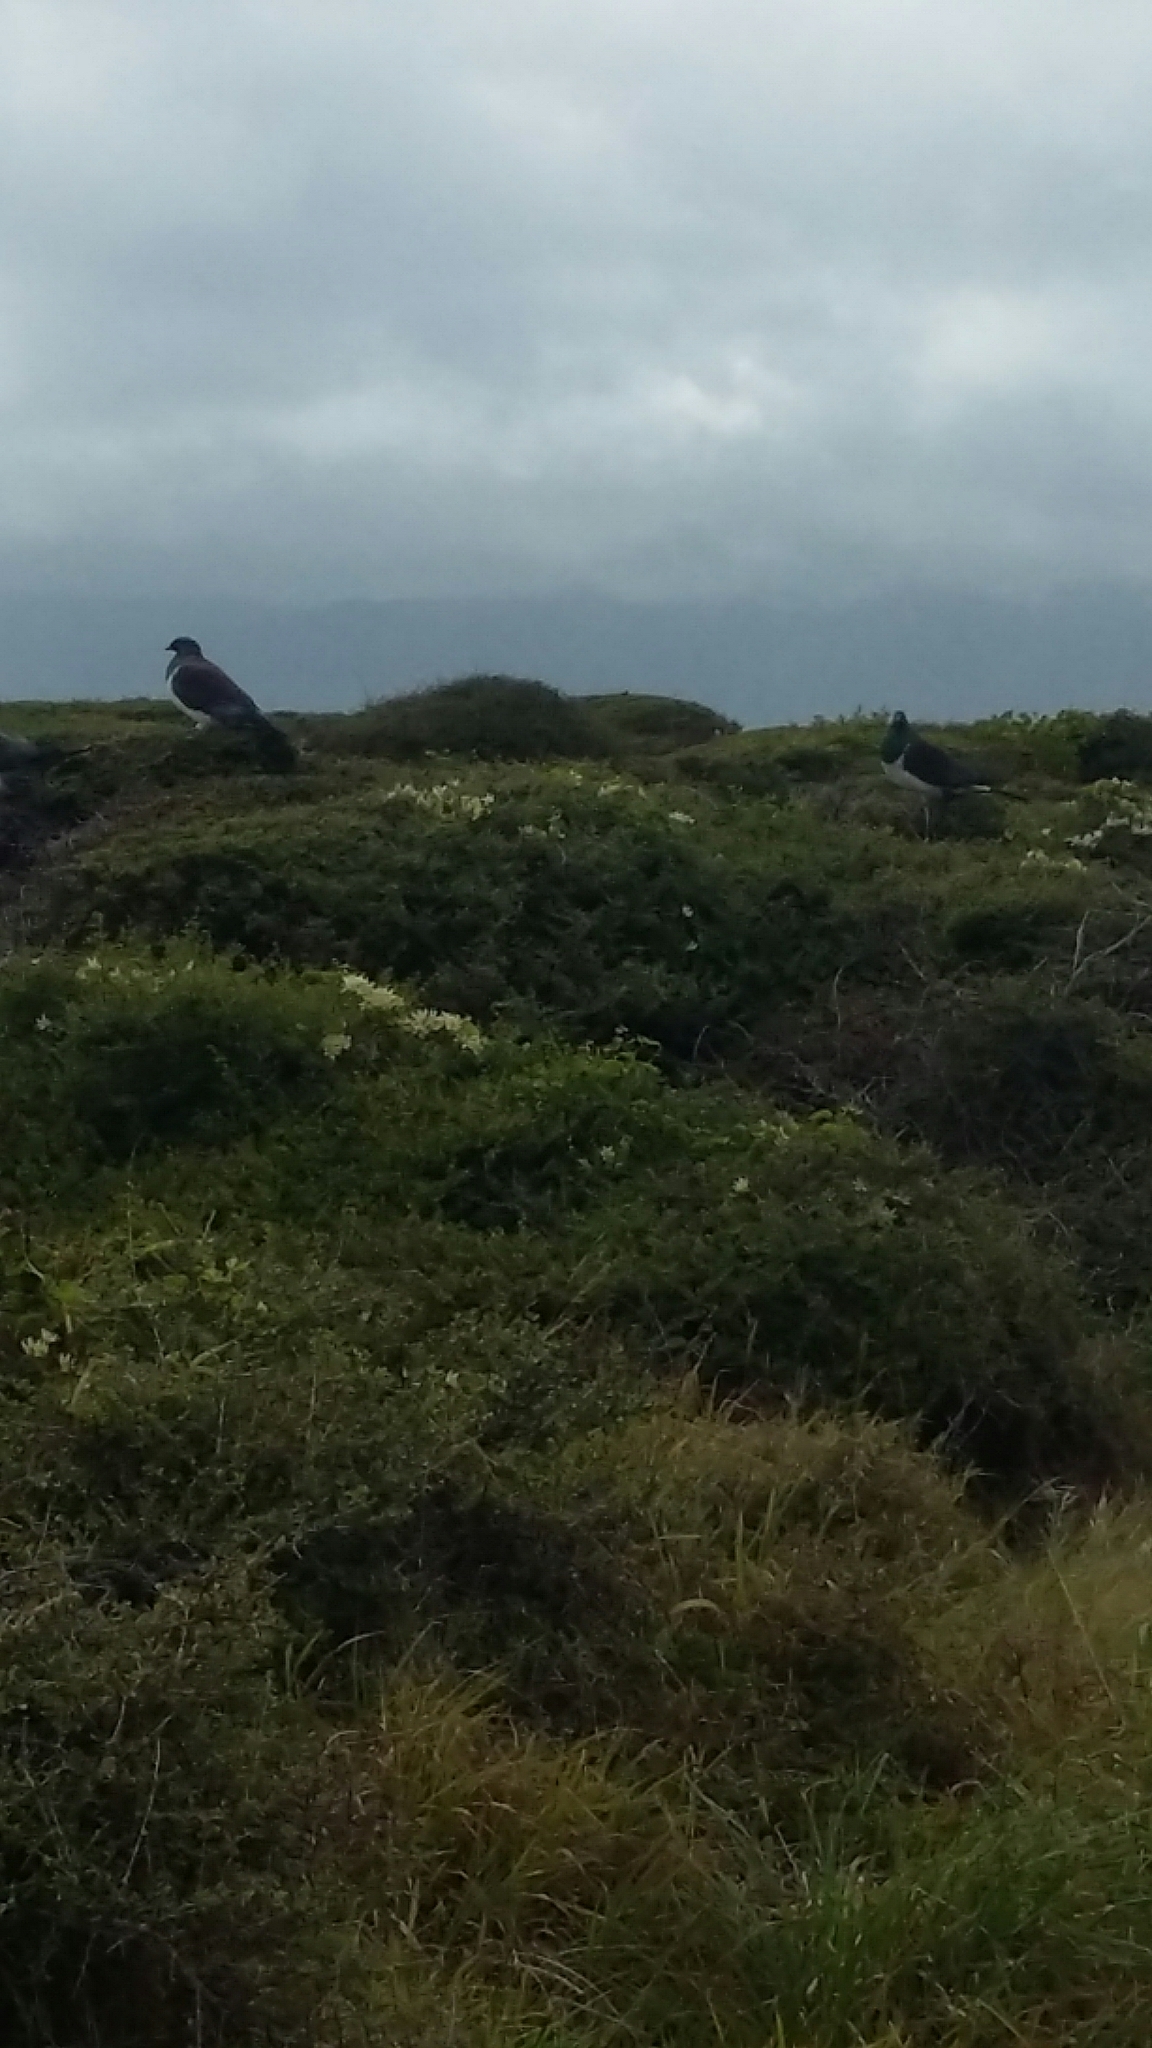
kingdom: Animalia
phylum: Chordata
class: Aves
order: Columbiformes
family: Columbidae
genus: Hemiphaga
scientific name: Hemiphaga novaeseelandiae
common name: New zealand pigeon
